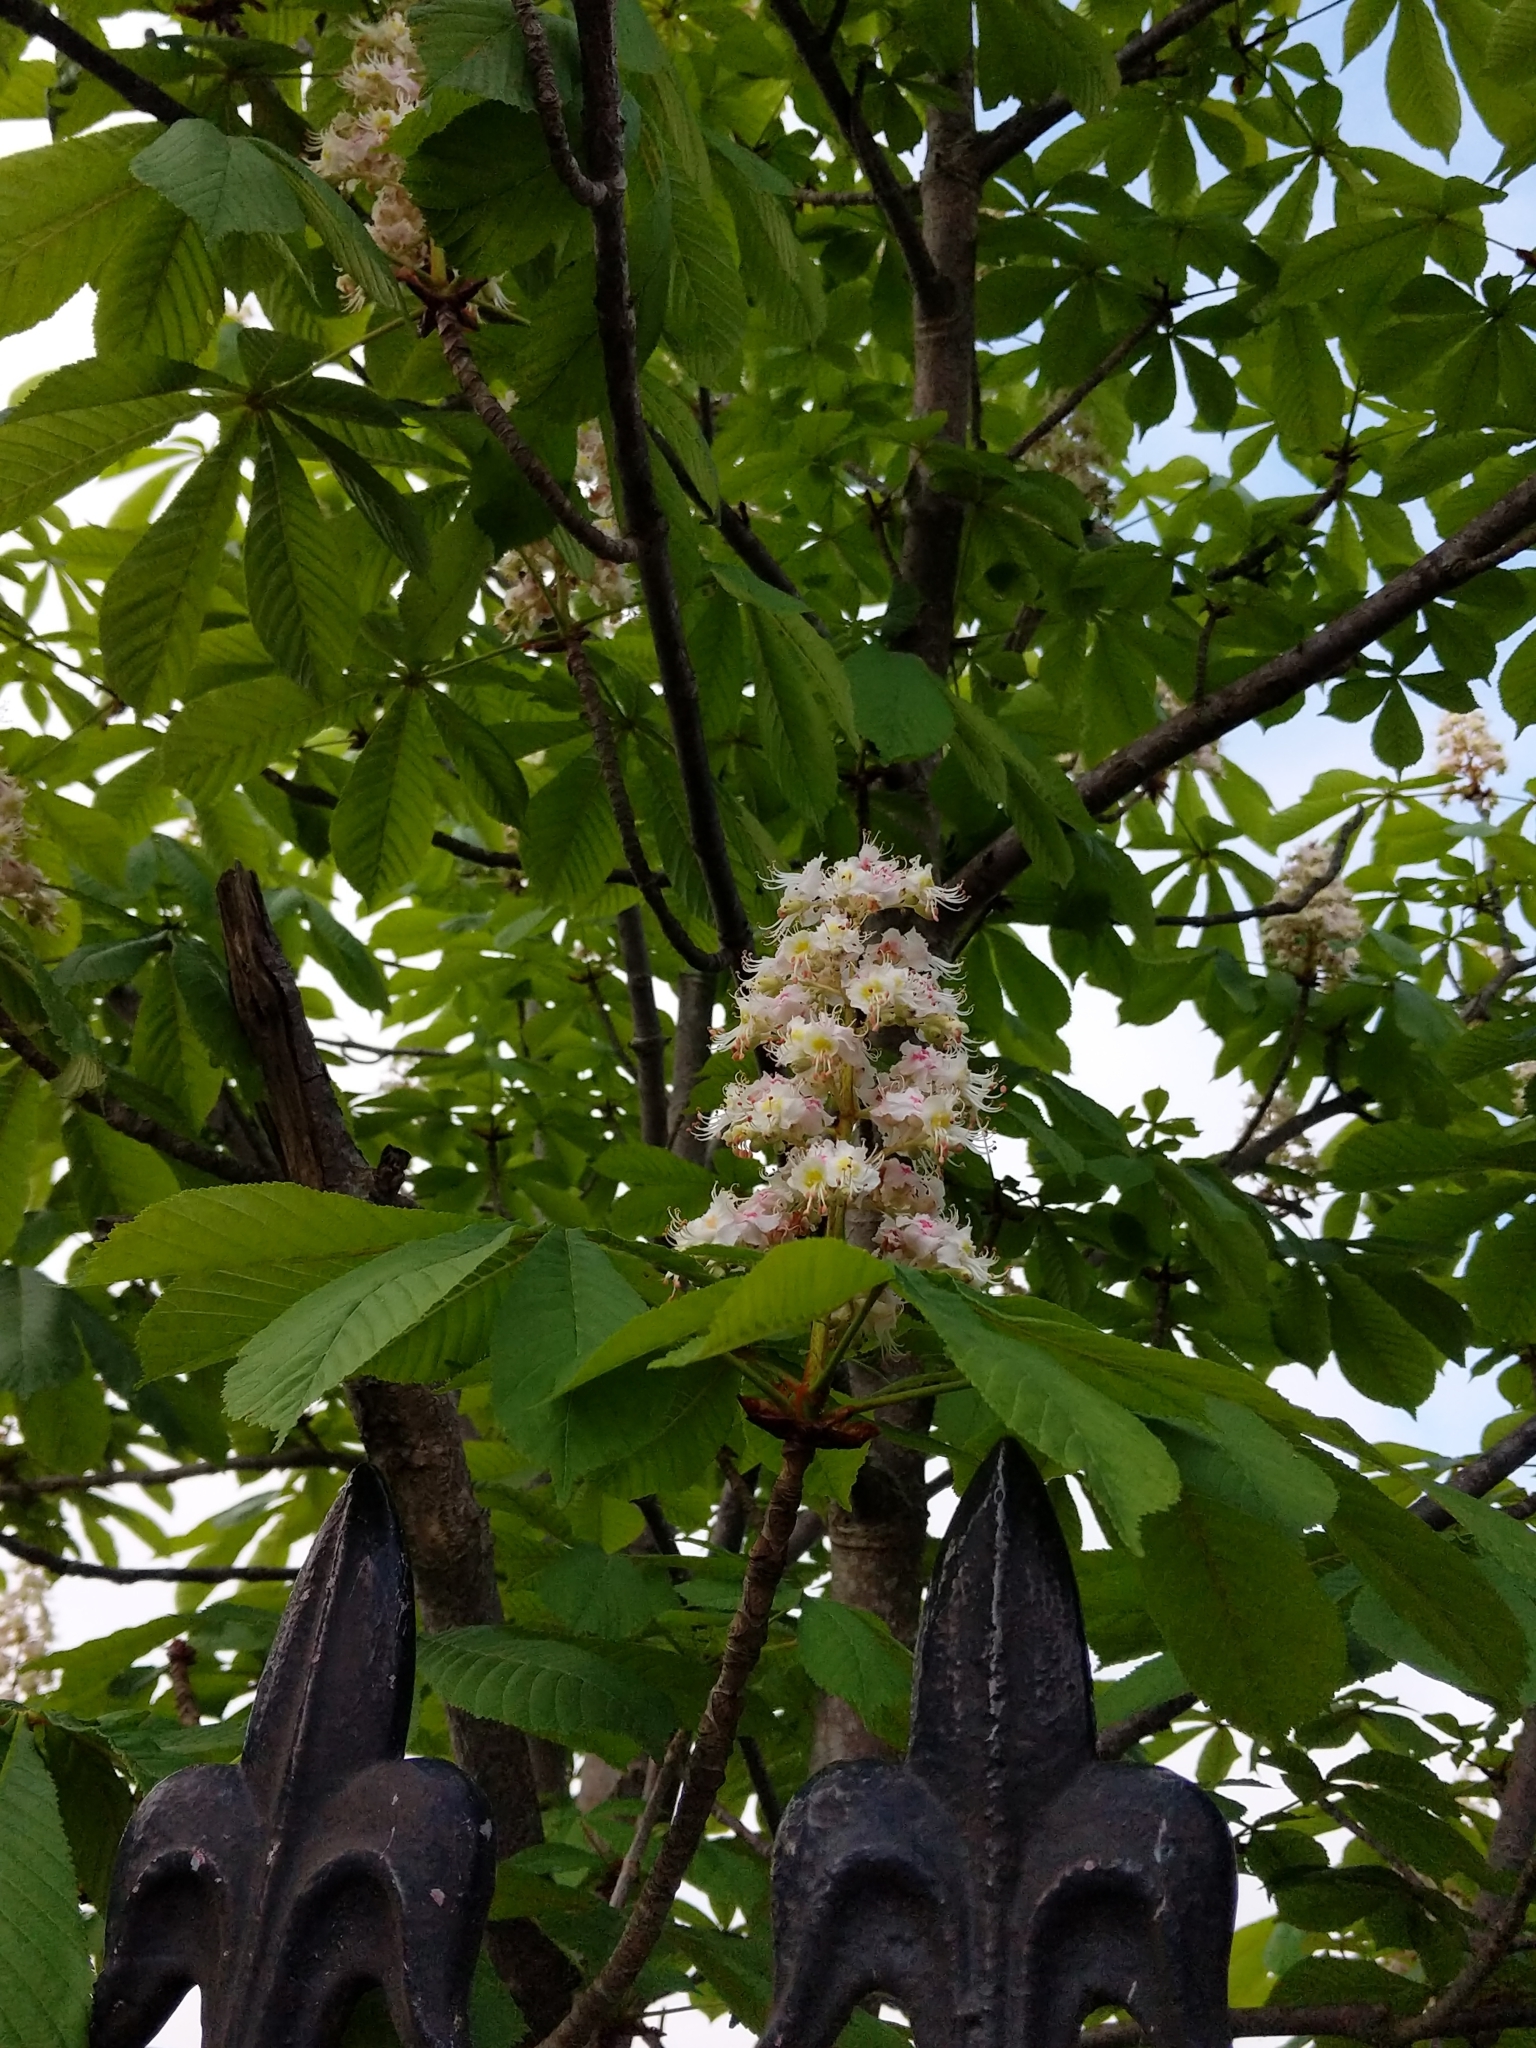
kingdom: Plantae
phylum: Tracheophyta
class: Magnoliopsida
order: Sapindales
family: Sapindaceae
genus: Aesculus
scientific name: Aesculus hippocastanum
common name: Horse-chestnut
